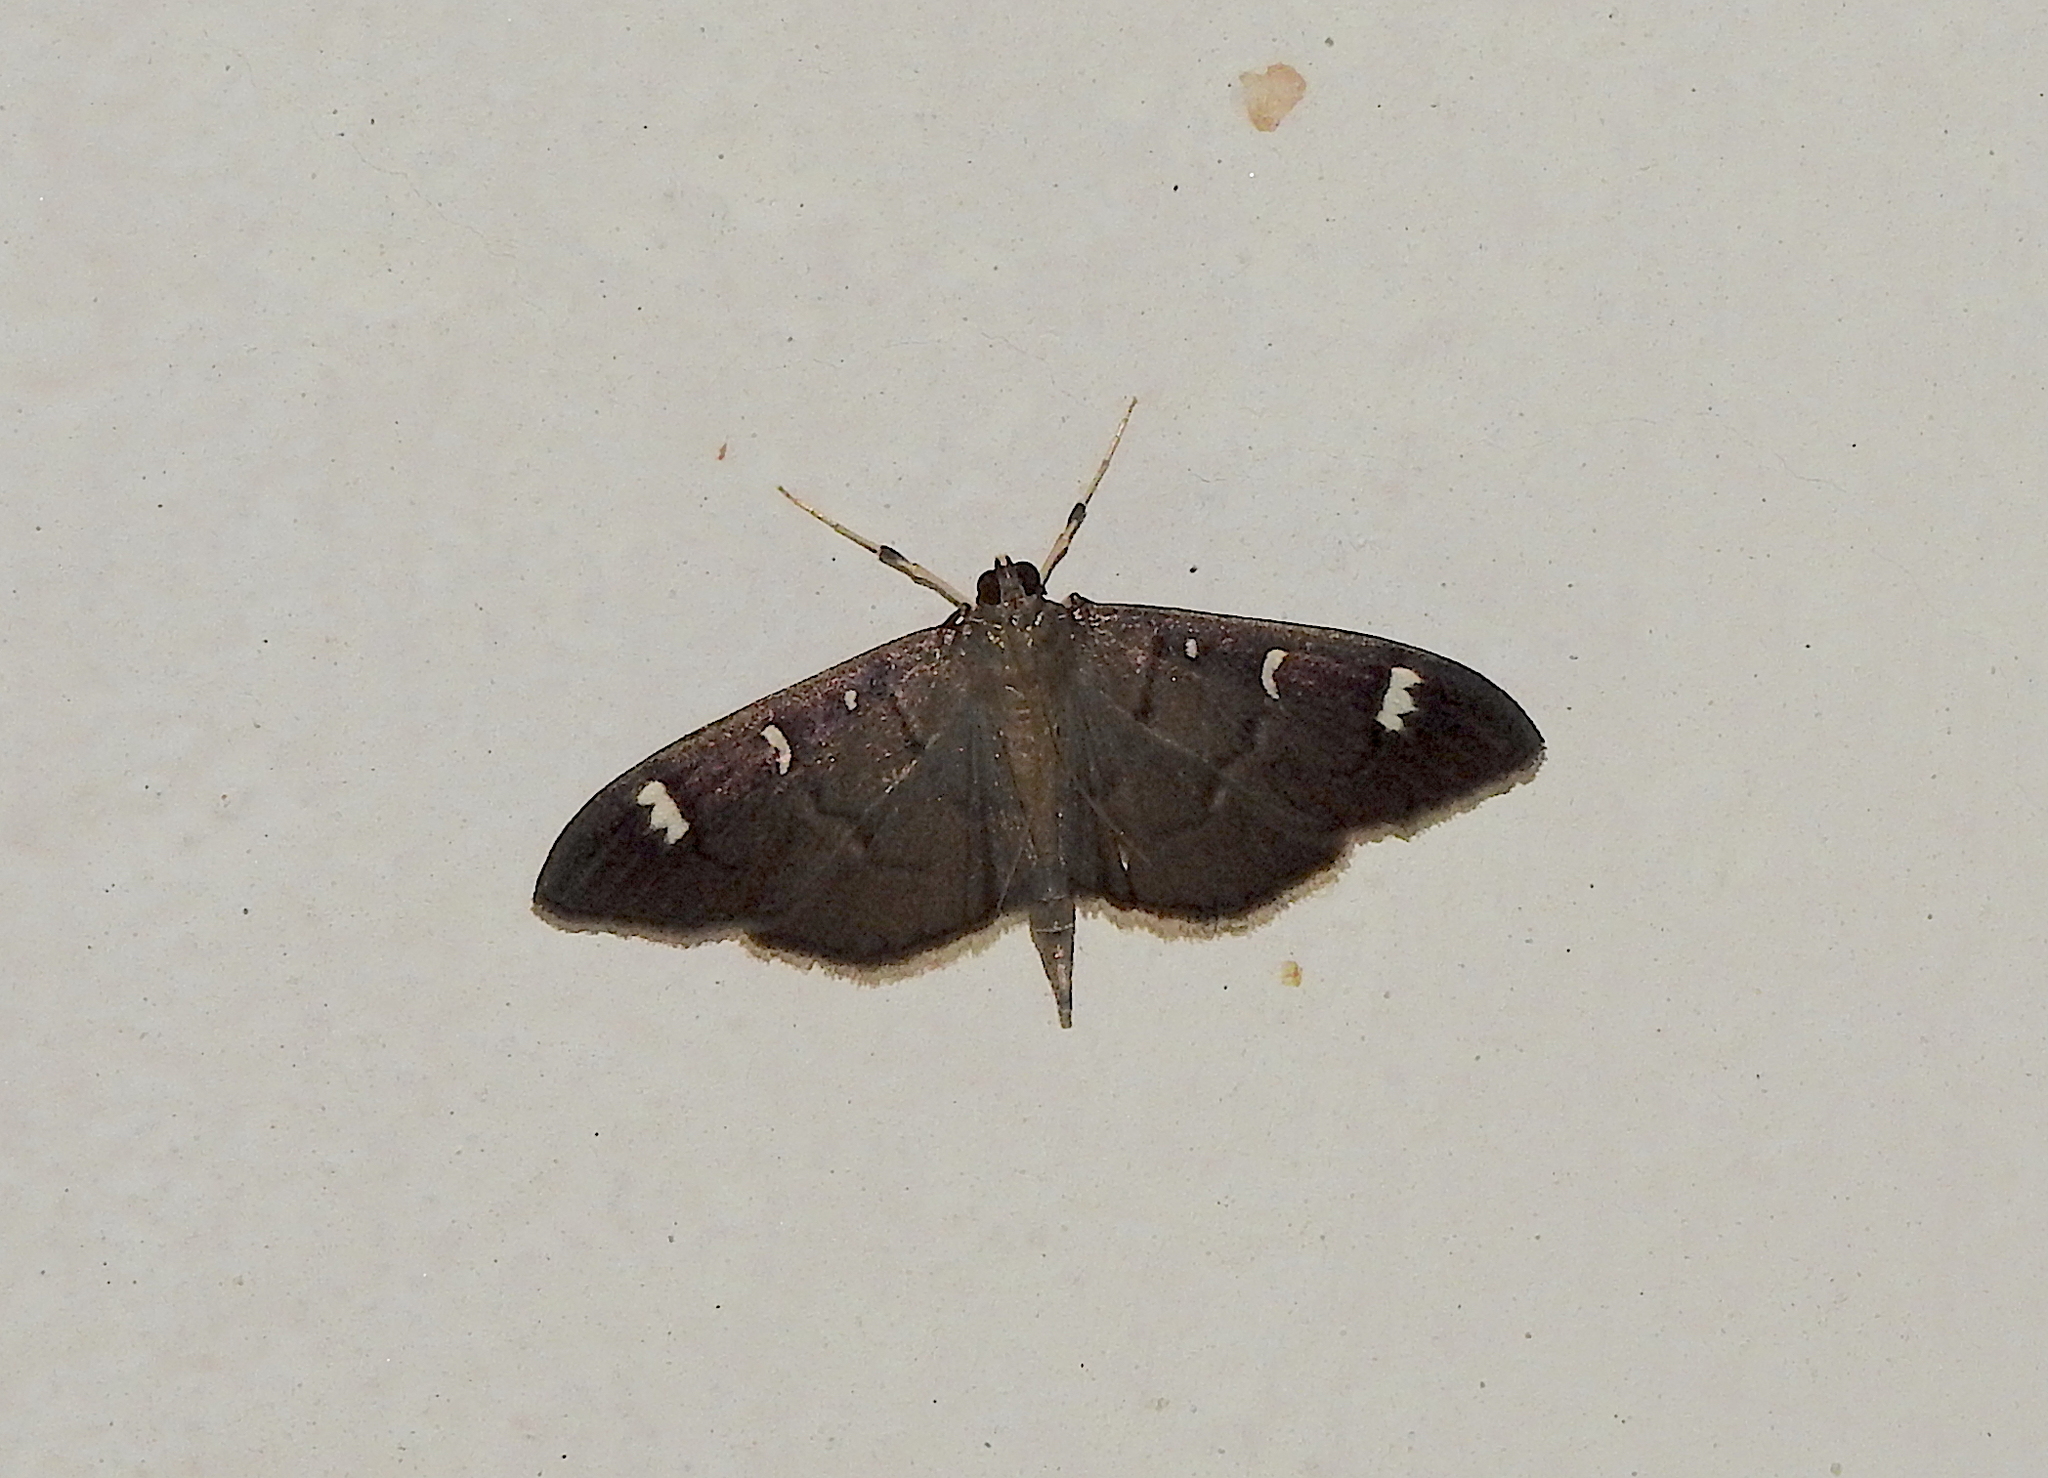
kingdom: Animalia
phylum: Arthropoda
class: Insecta
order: Lepidoptera
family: Crambidae
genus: Syllepte
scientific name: Syllepte adductalis
